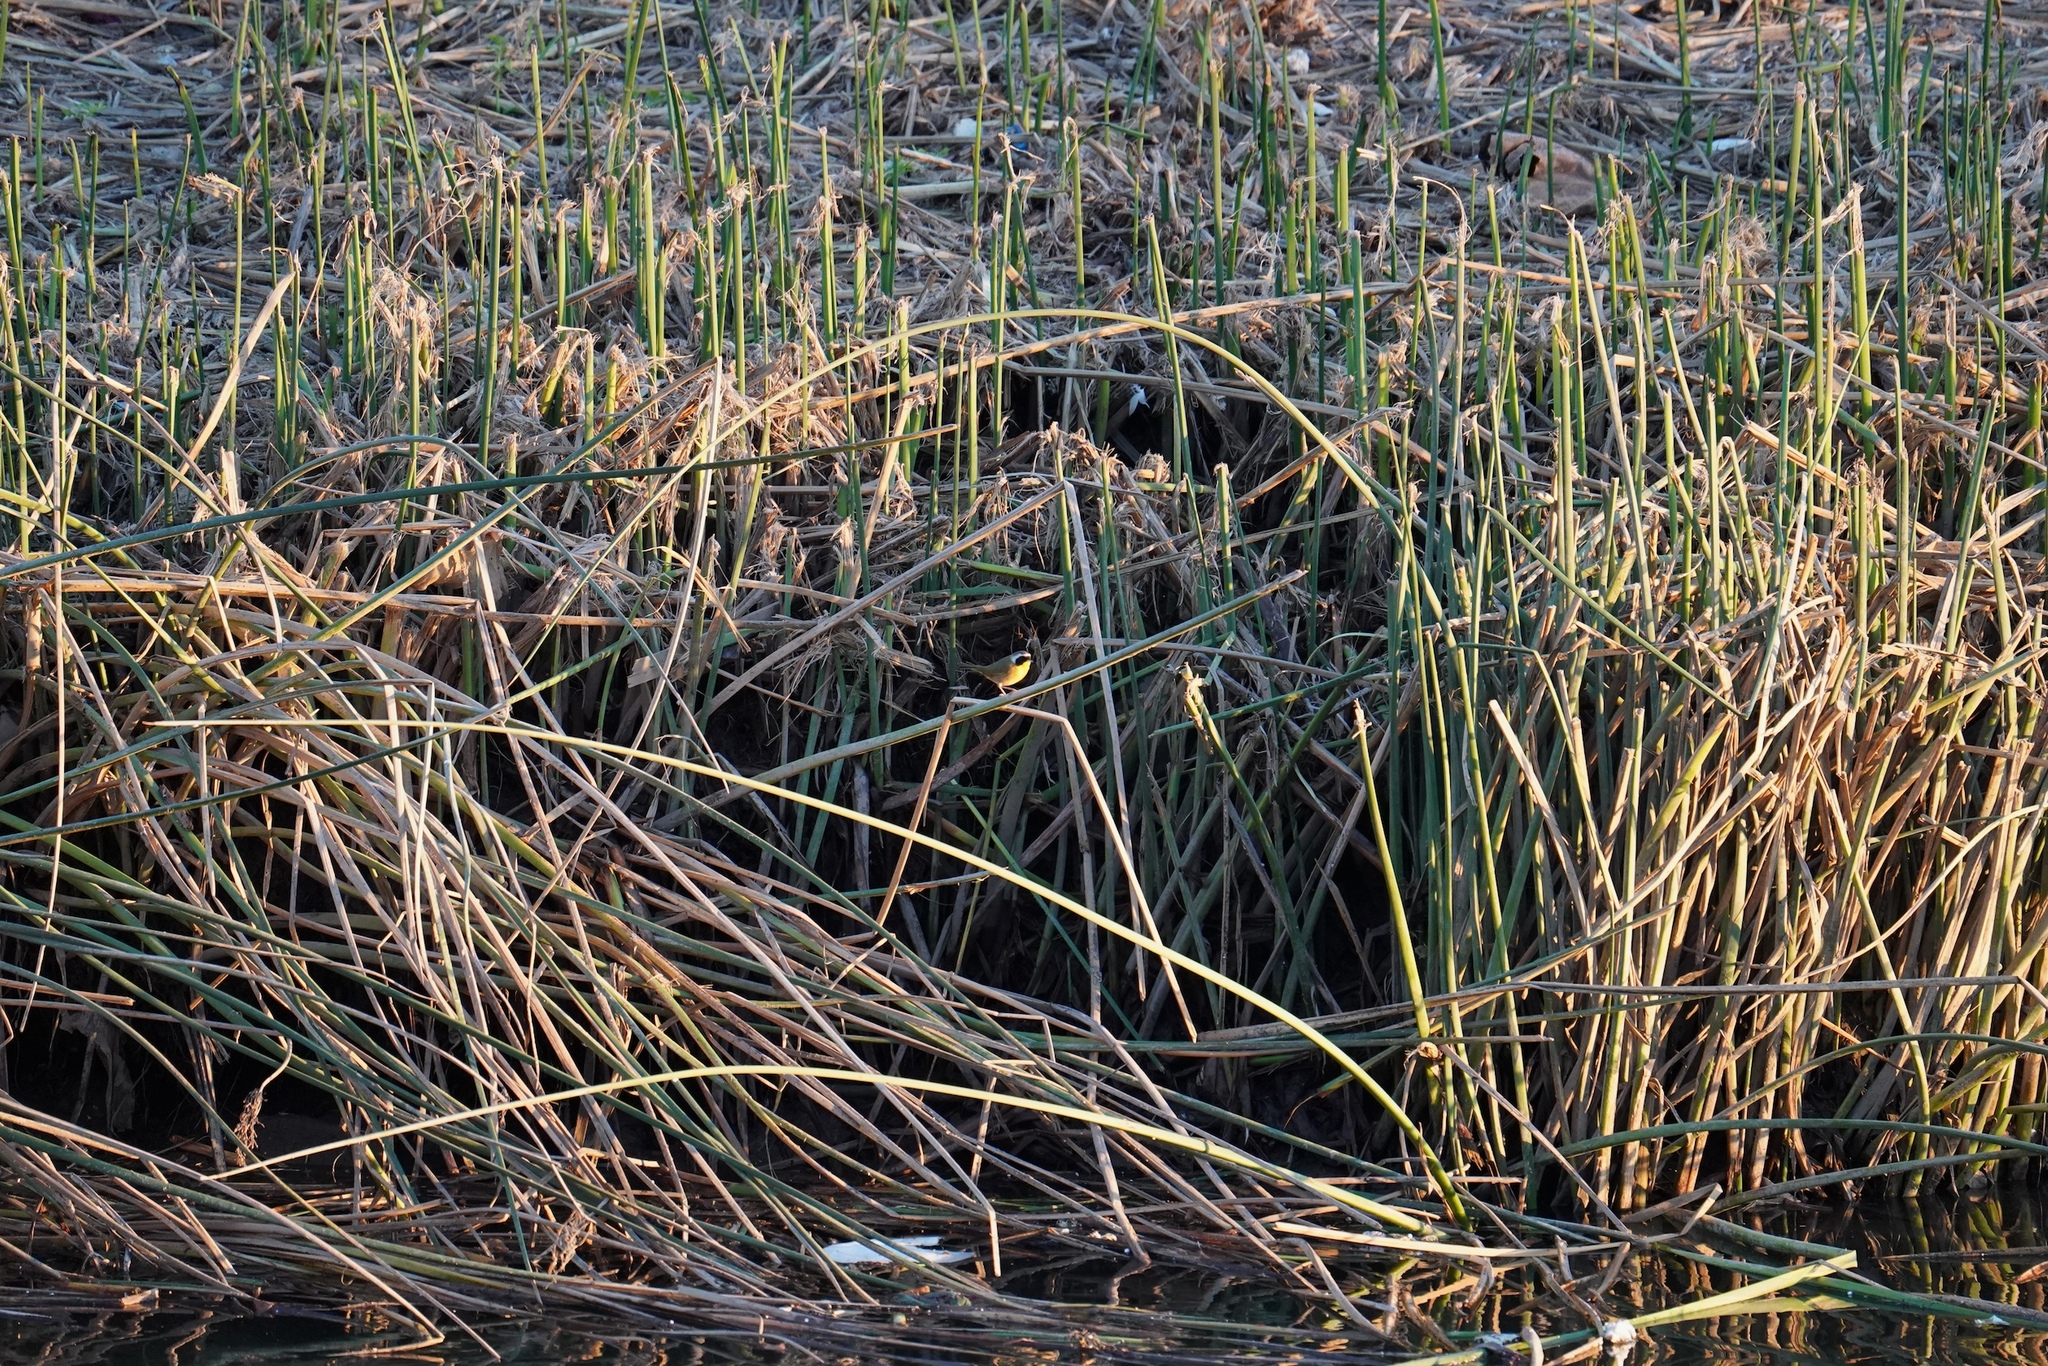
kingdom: Animalia
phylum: Chordata
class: Aves
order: Passeriformes
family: Parulidae
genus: Geothlypis
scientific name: Geothlypis trichas
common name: Common yellowthroat
